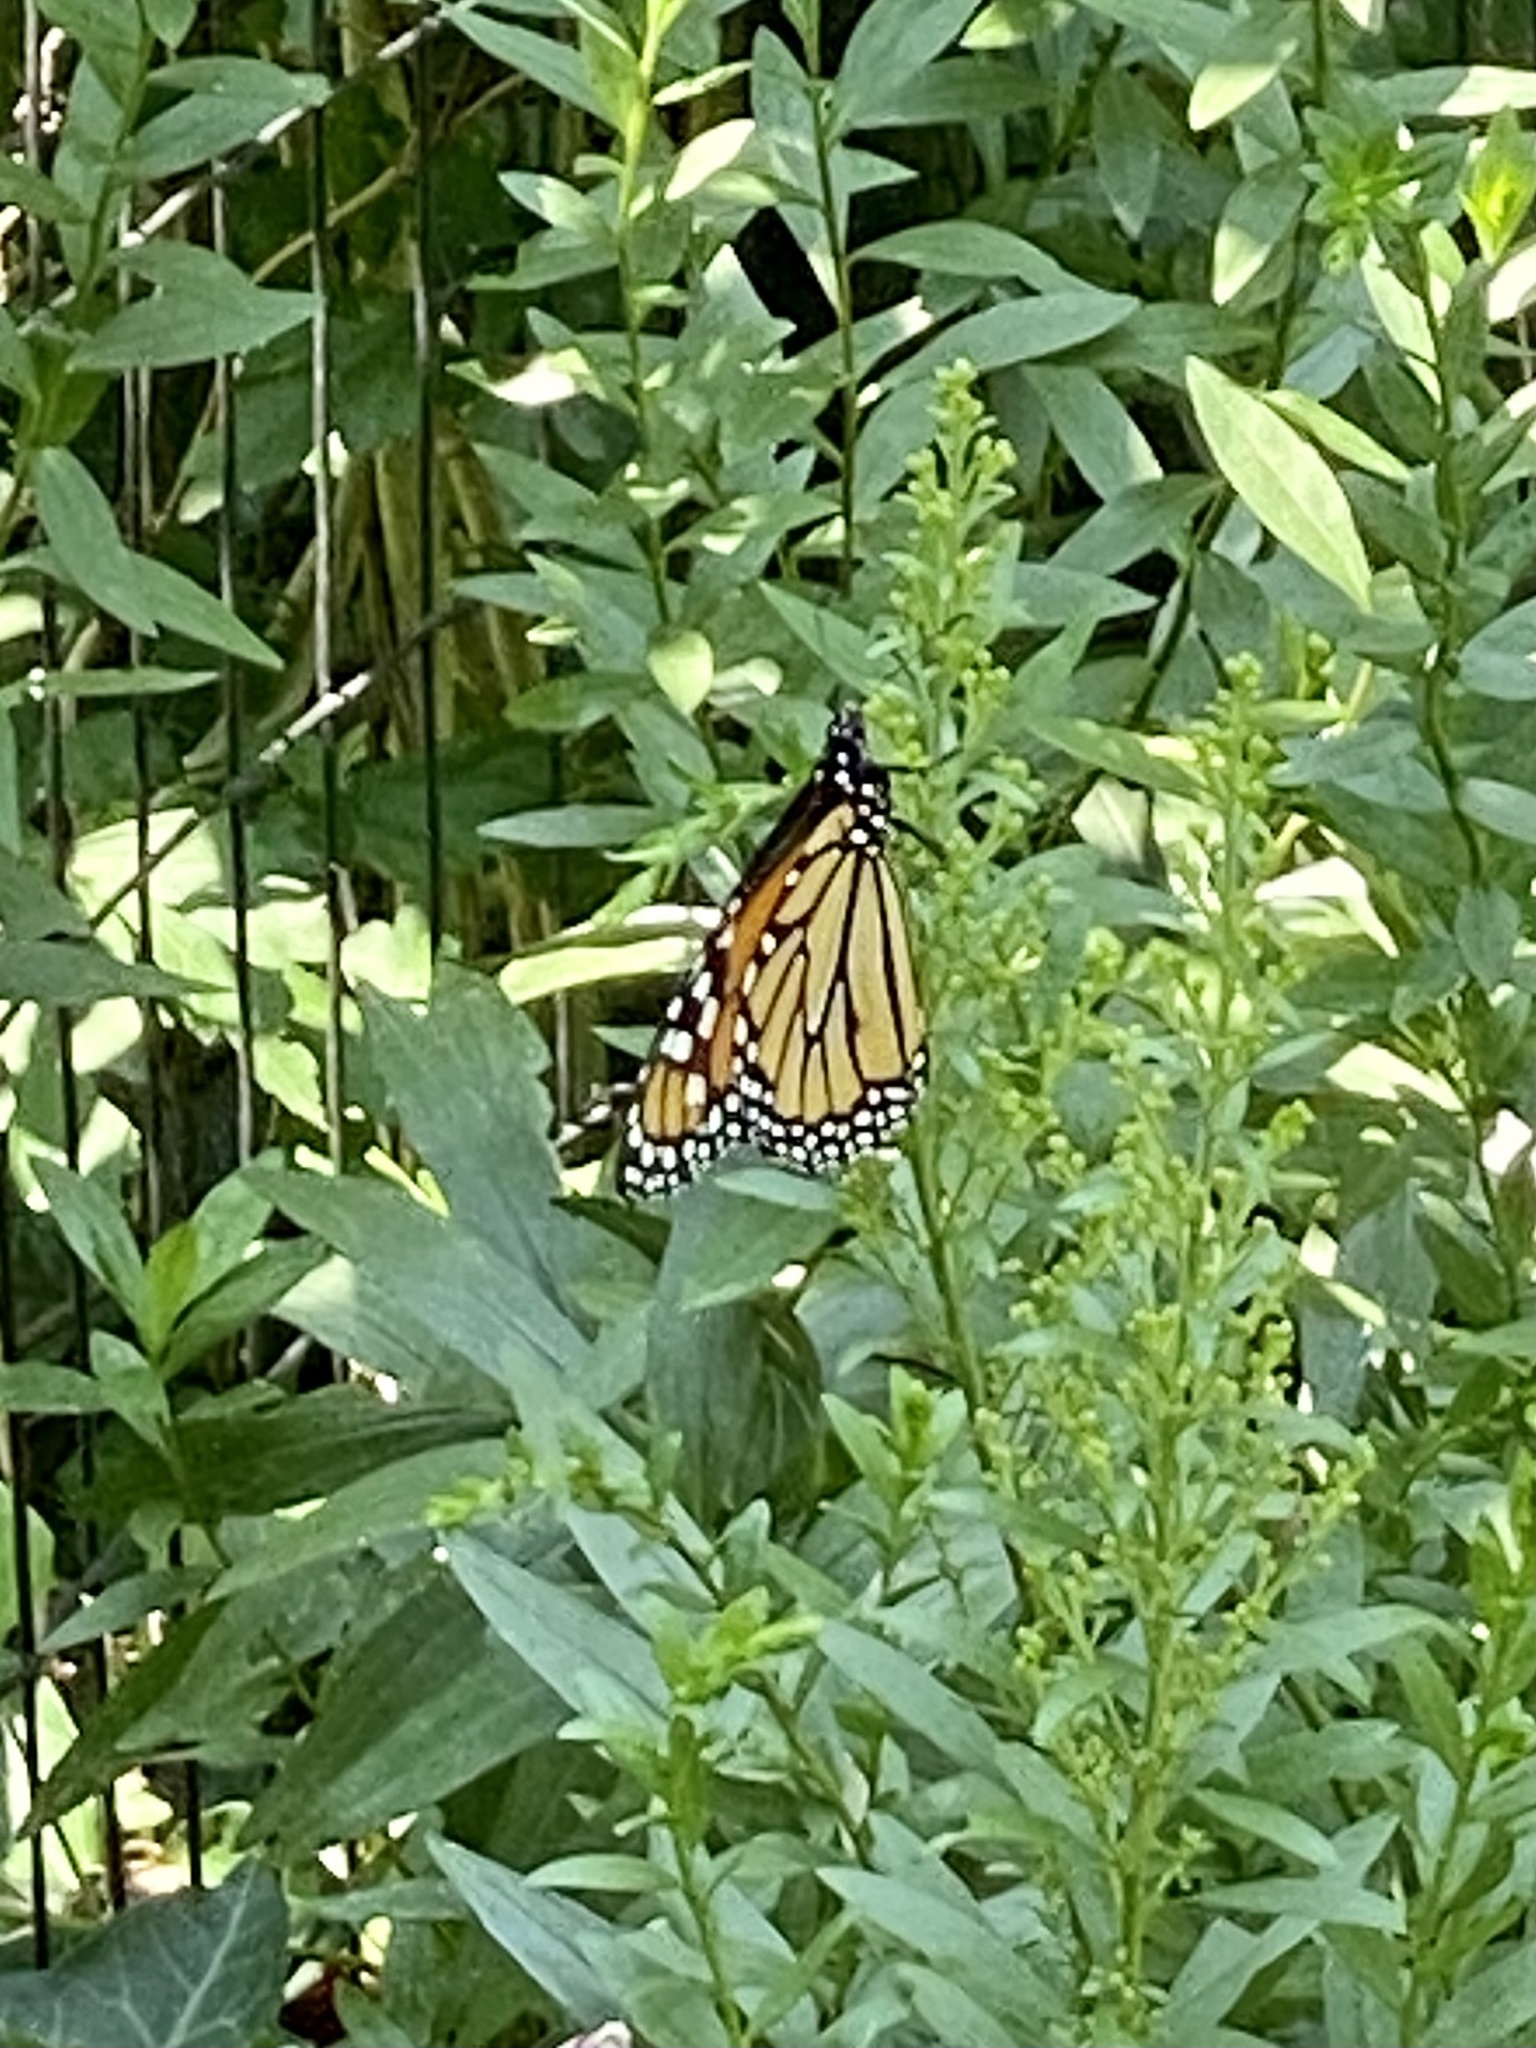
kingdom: Animalia
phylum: Arthropoda
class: Insecta
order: Lepidoptera
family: Nymphalidae
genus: Danaus
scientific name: Danaus plexippus
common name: Monarch
